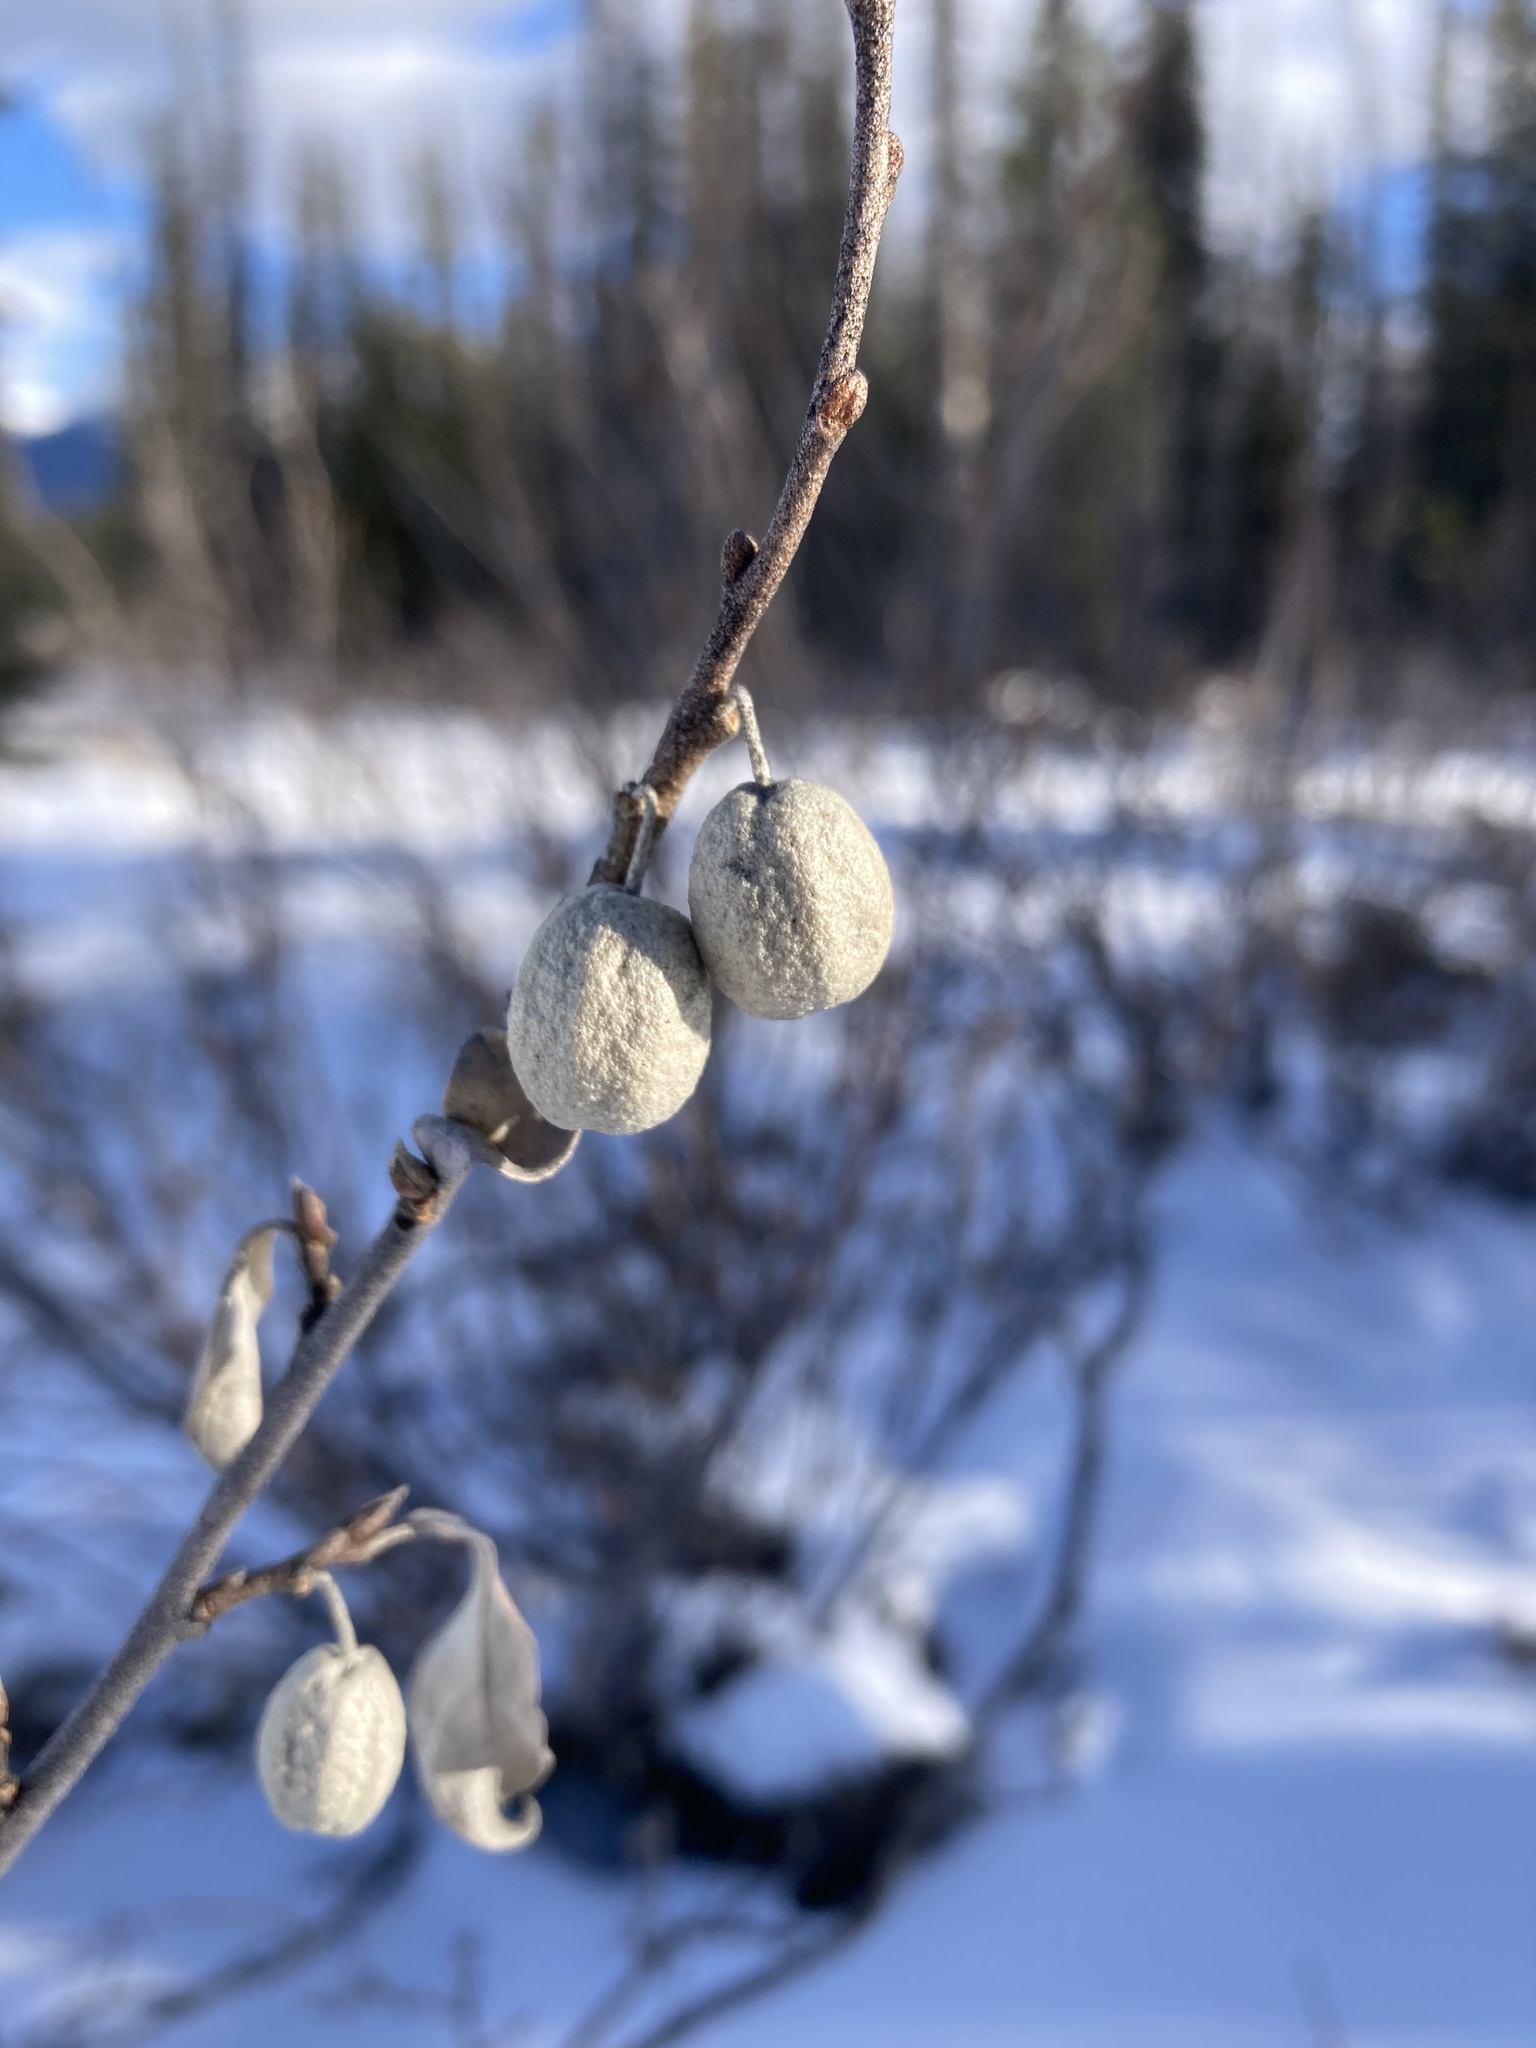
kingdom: Plantae
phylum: Tracheophyta
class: Magnoliopsida
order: Rosales
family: Elaeagnaceae
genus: Elaeagnus
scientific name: Elaeagnus commutata
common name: Silverberry
